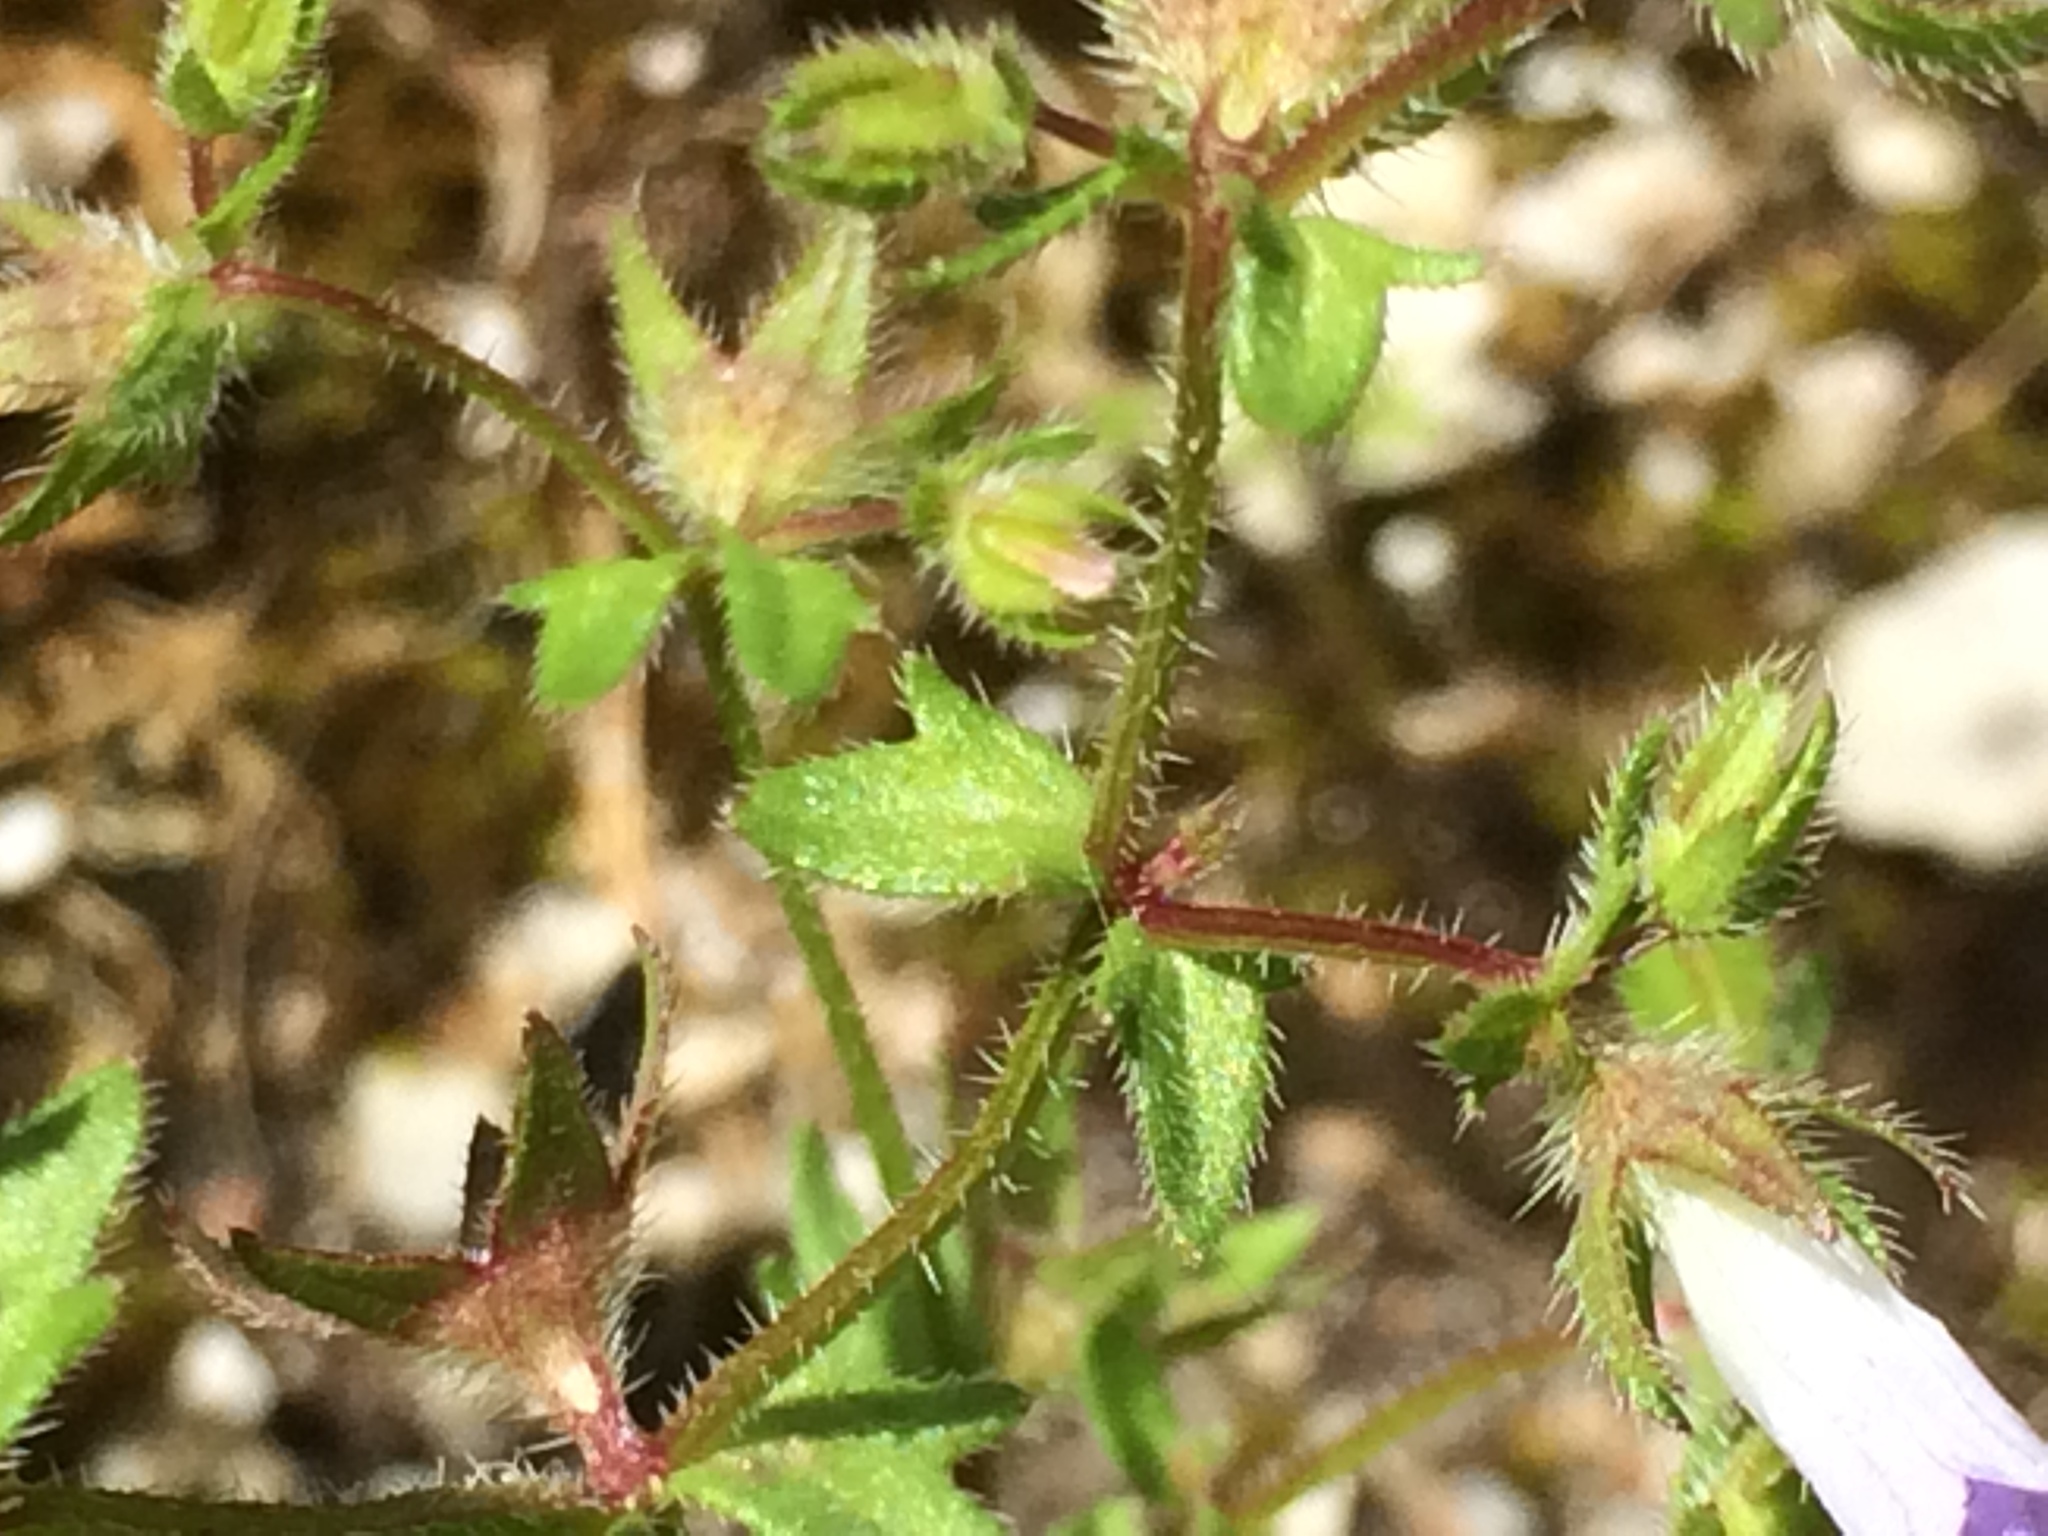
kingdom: Plantae
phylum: Tracheophyta
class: Magnoliopsida
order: Asterales
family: Campanulaceae
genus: Campanula
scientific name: Campanula erinus
